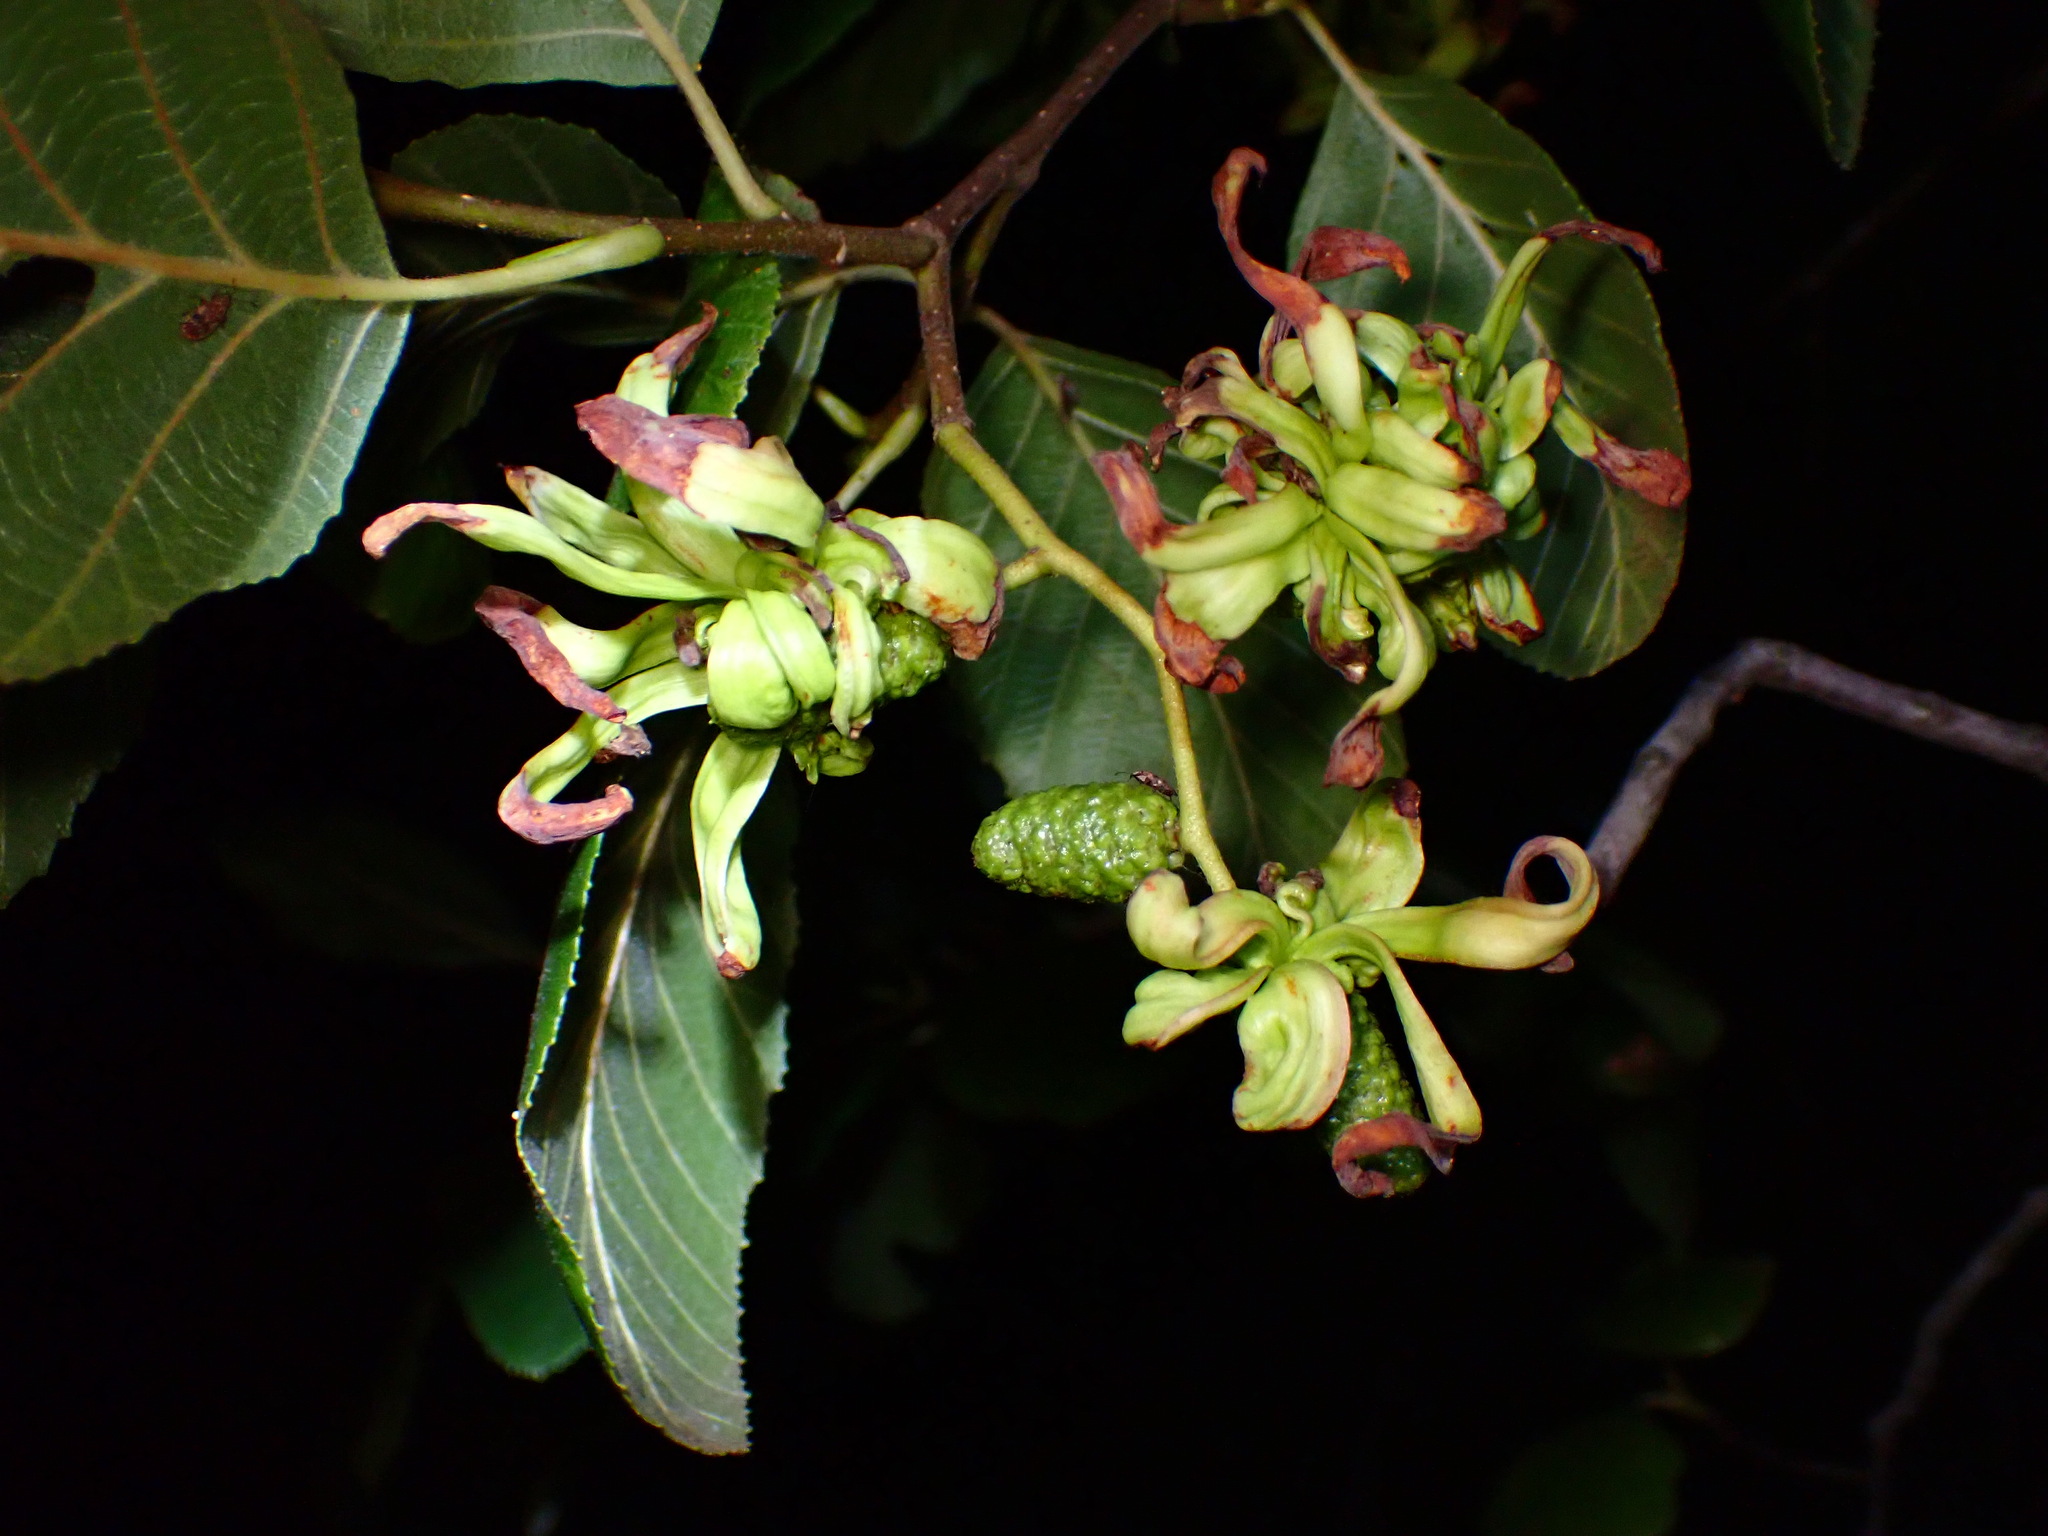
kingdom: Fungi
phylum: Ascomycota
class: Taphrinomycetes
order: Taphrinales
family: Taphrinaceae
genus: Taphrina
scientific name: Taphrina occidentalis
